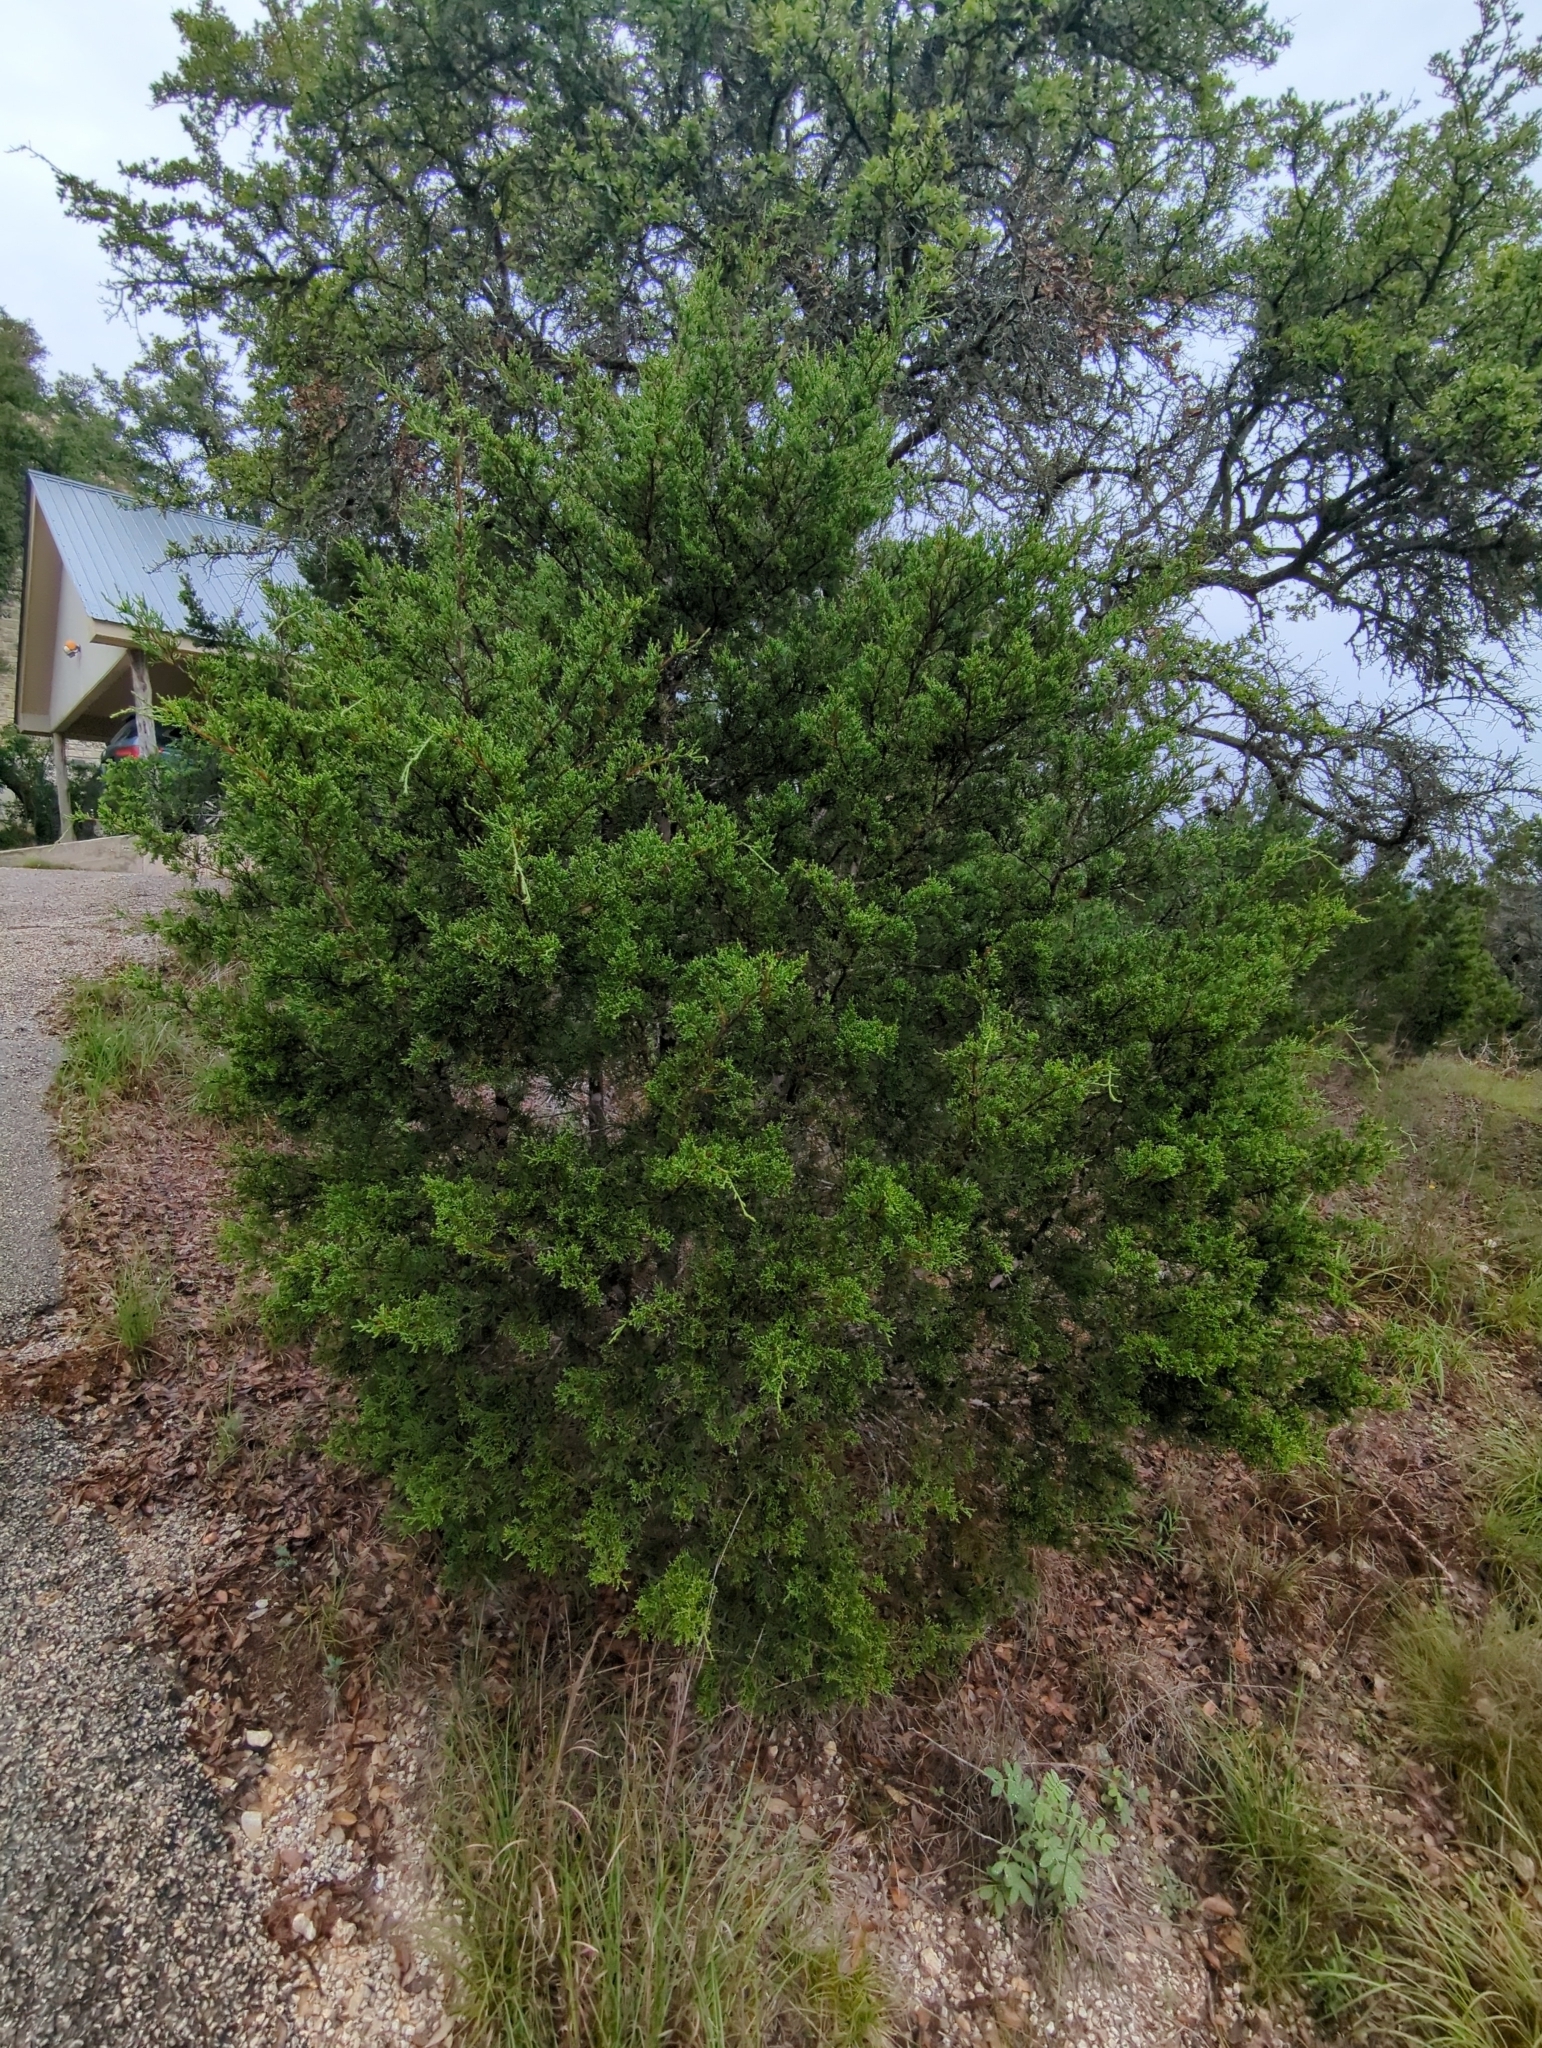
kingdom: Plantae
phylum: Tracheophyta
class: Pinopsida
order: Pinales
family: Cupressaceae
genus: Juniperus
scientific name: Juniperus ashei
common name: Mexican juniper
